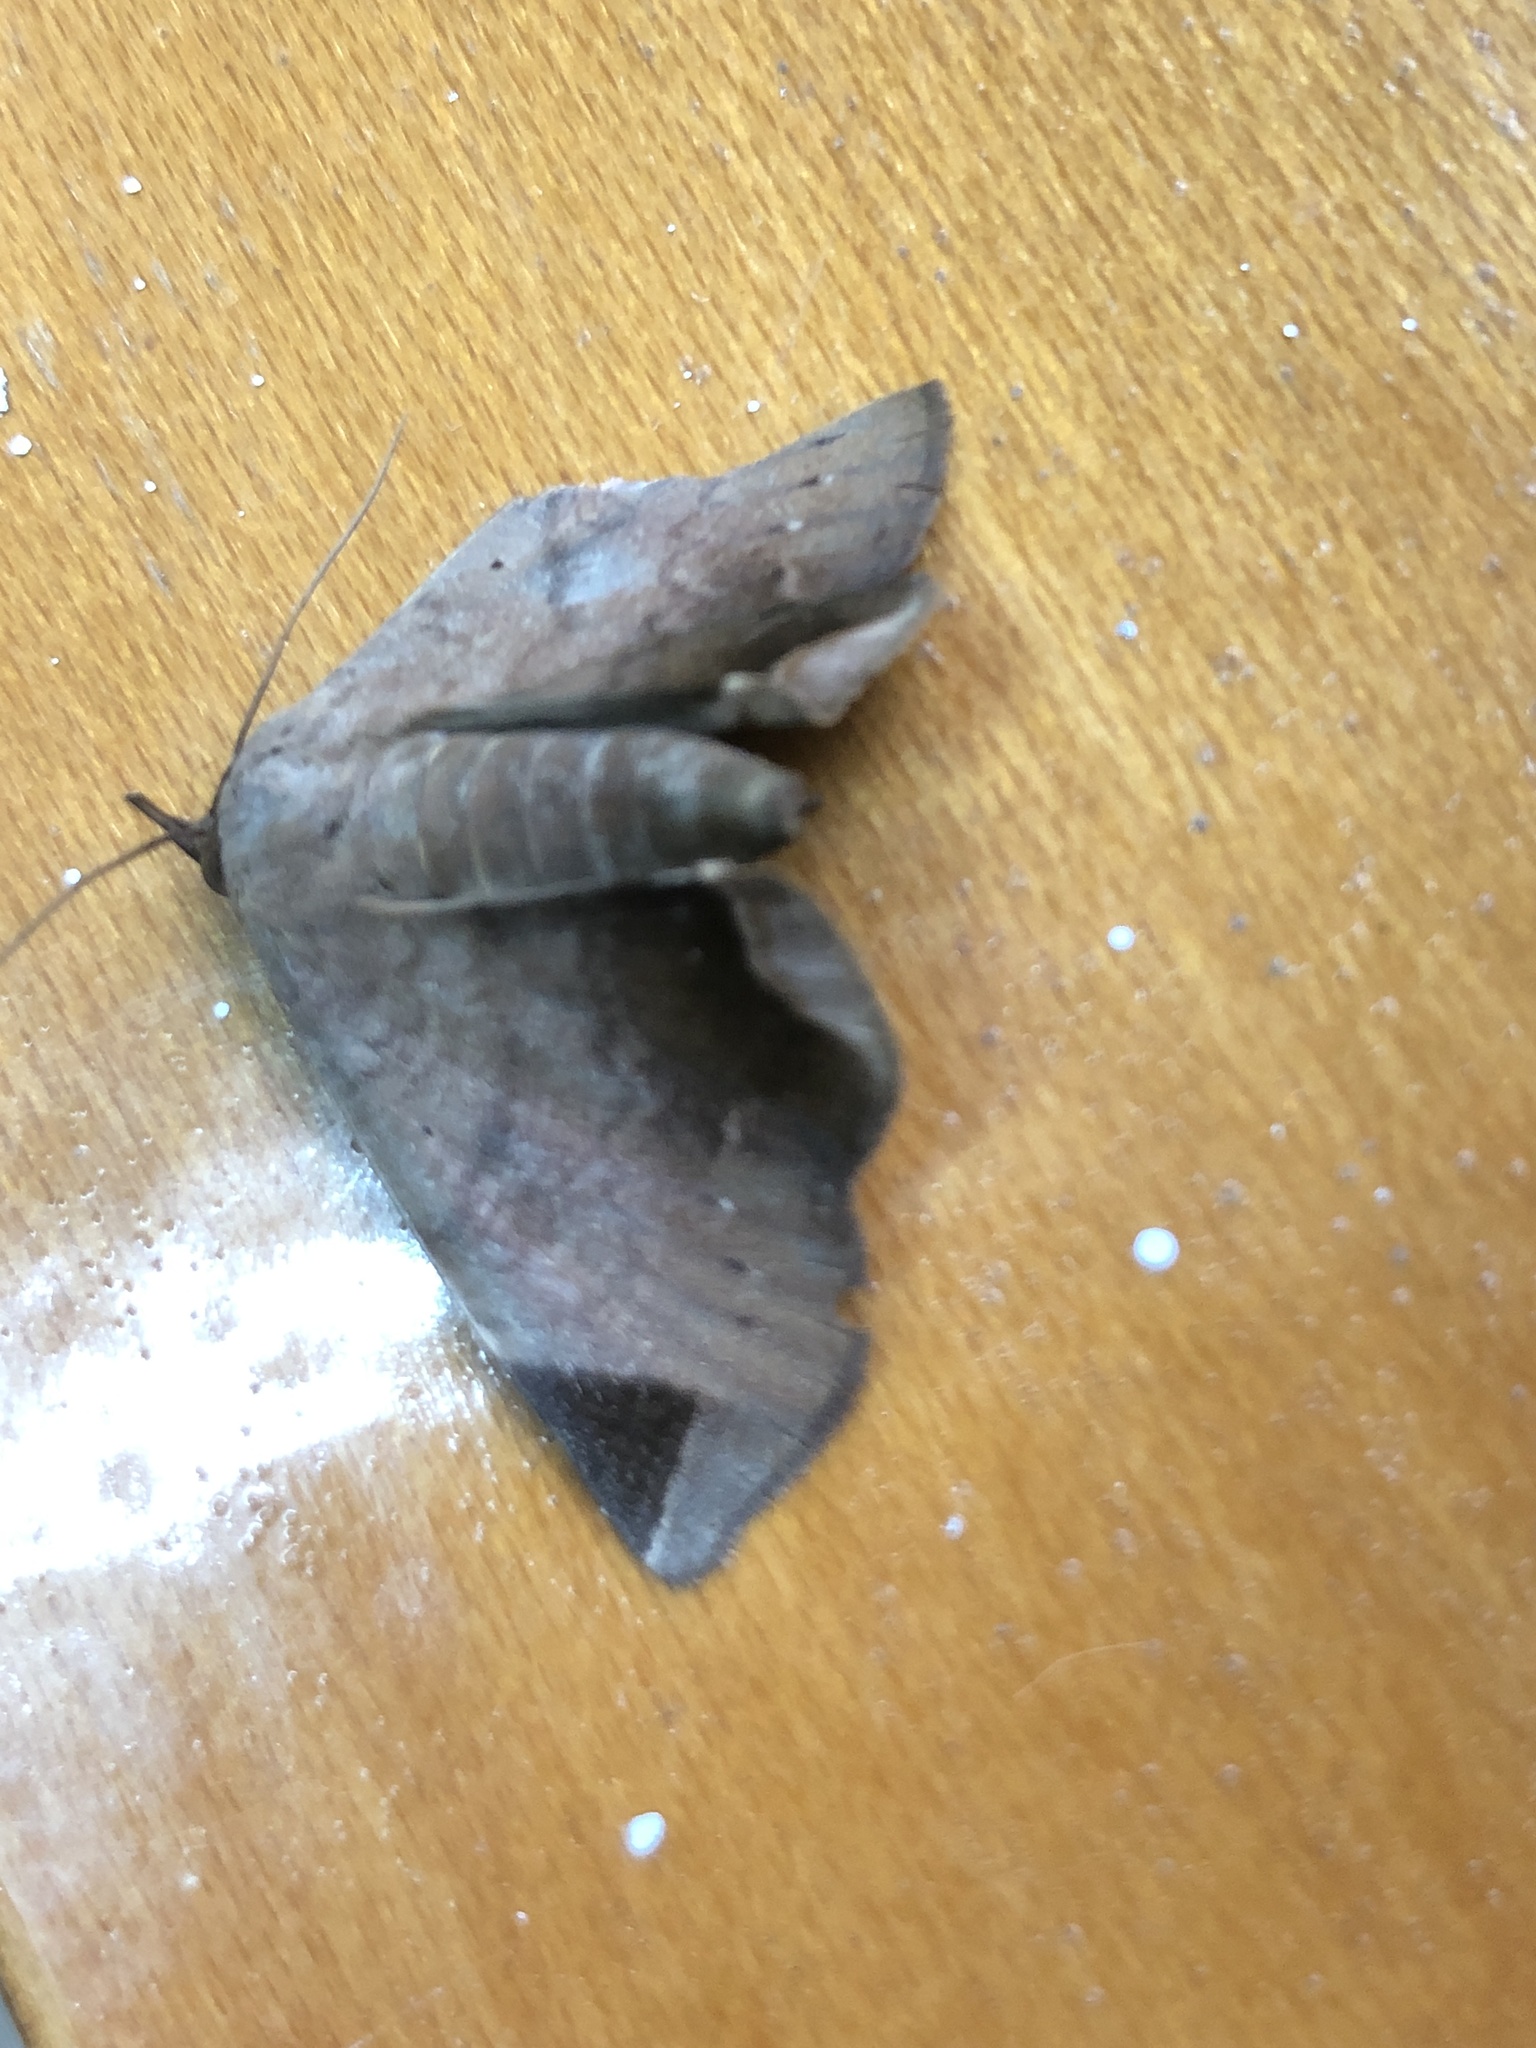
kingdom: Animalia
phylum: Arthropoda
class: Insecta
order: Lepidoptera
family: Erebidae
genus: Psimada
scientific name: Psimada quadripennis
